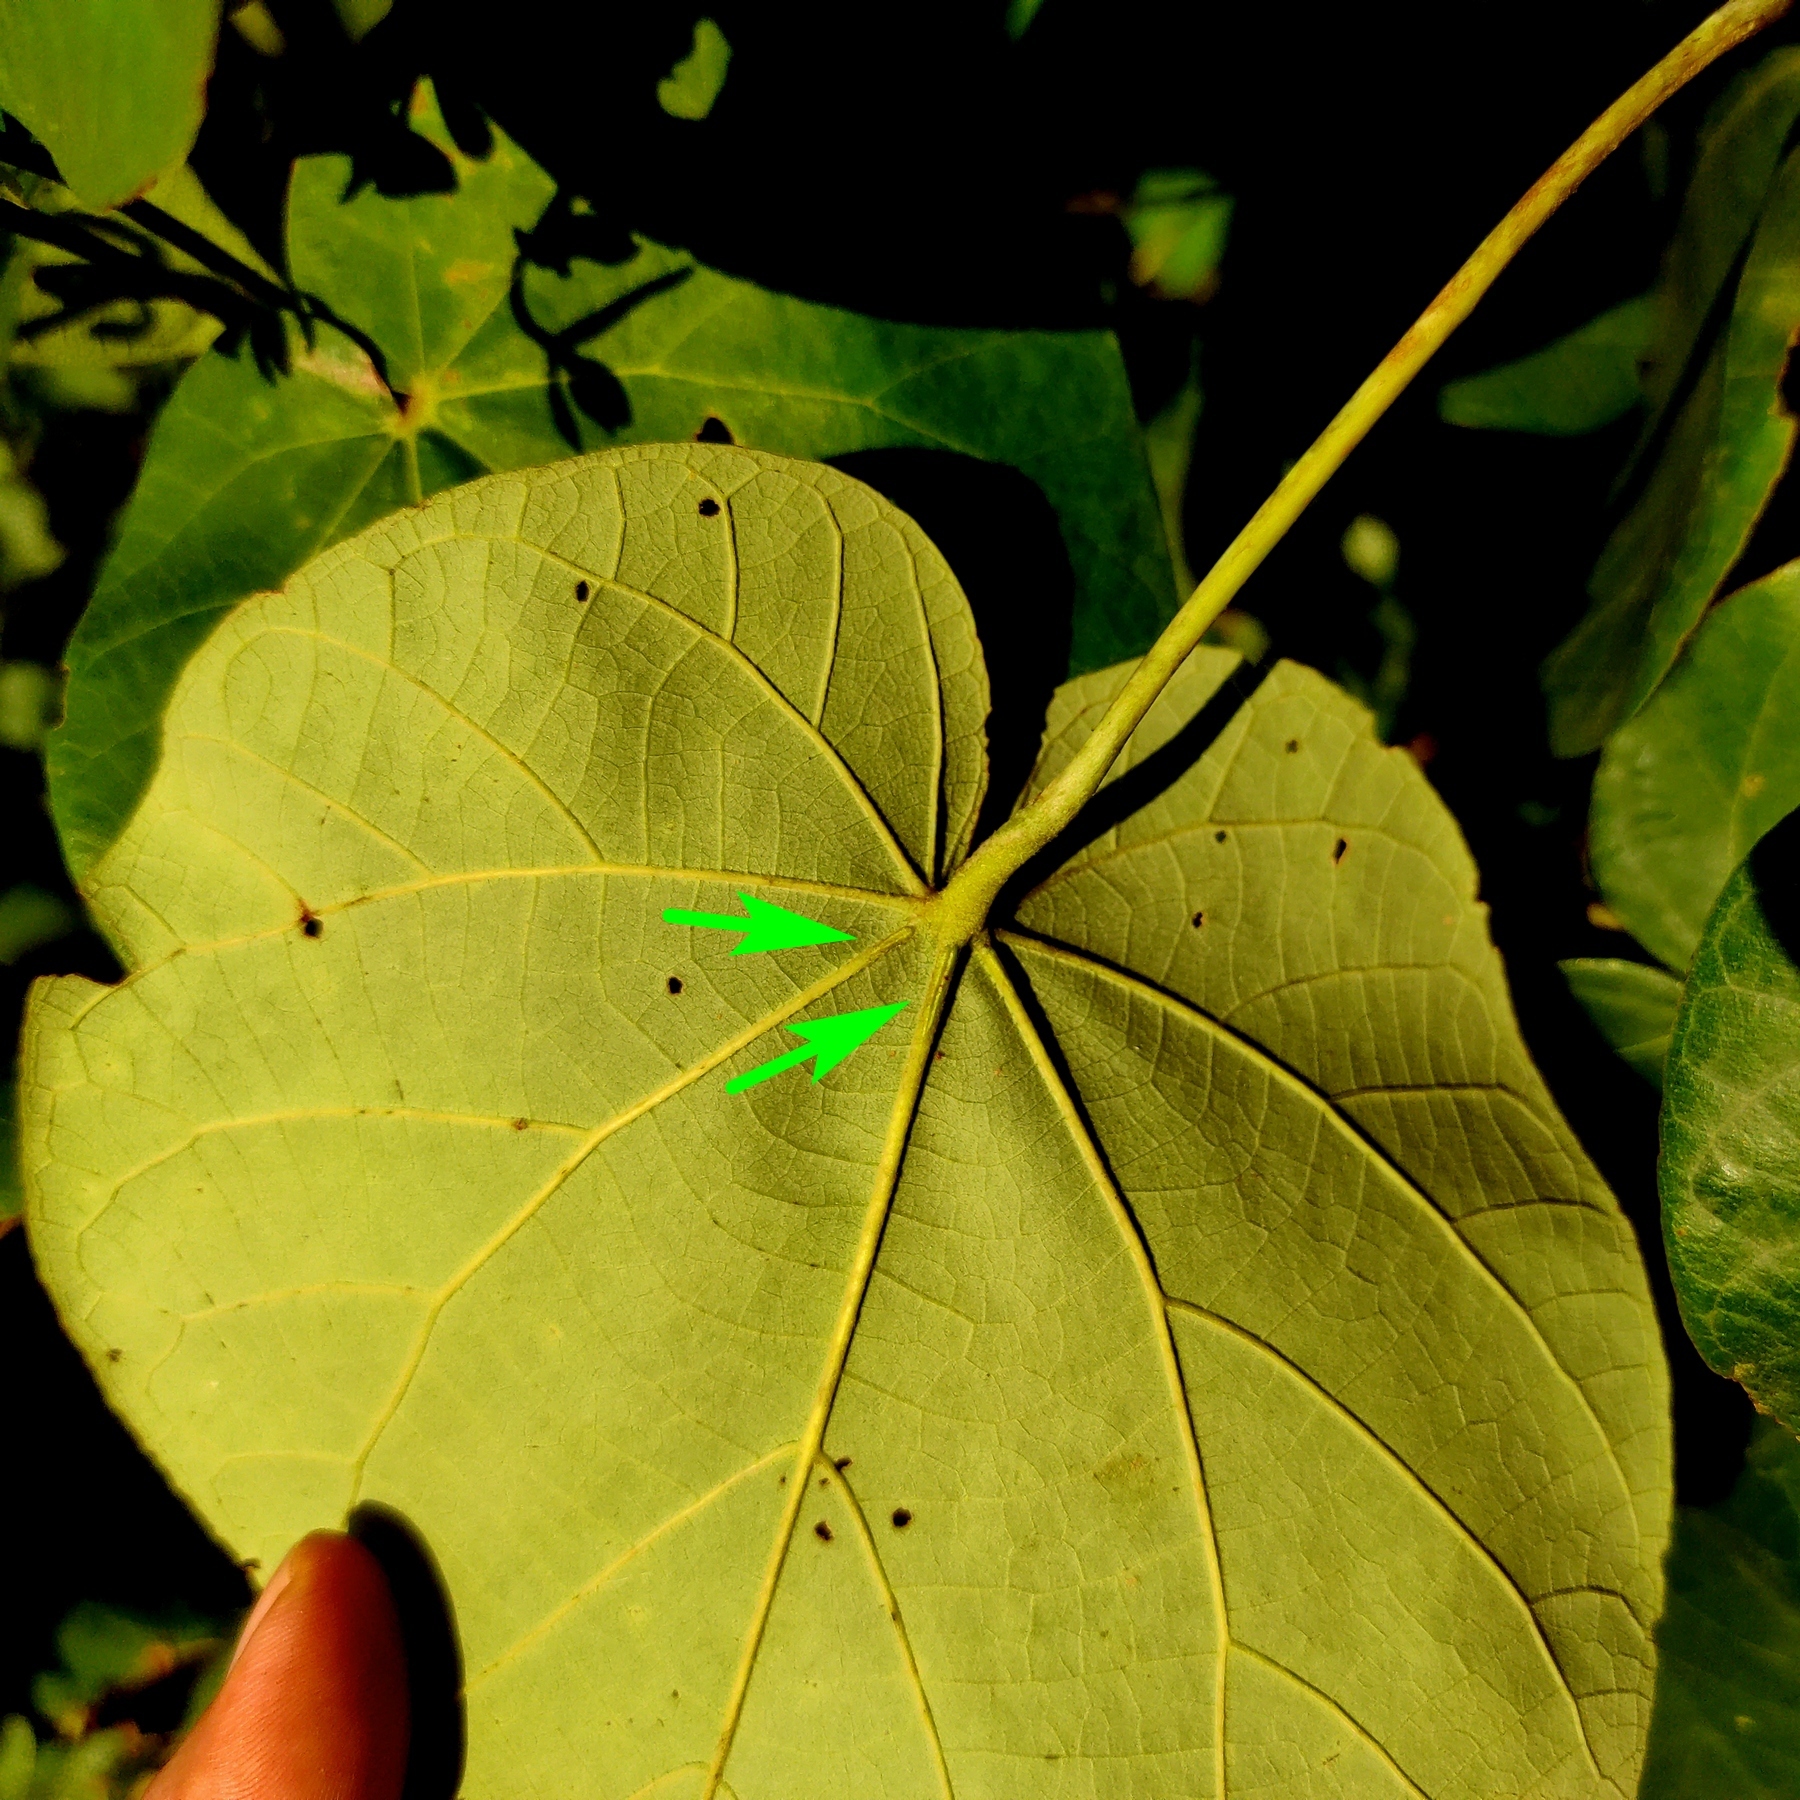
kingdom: Plantae
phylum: Tracheophyta
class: Magnoliopsida
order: Malvales
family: Malvaceae
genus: Talipariti
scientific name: Talipariti tiliaceum
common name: Sea hibiscus
